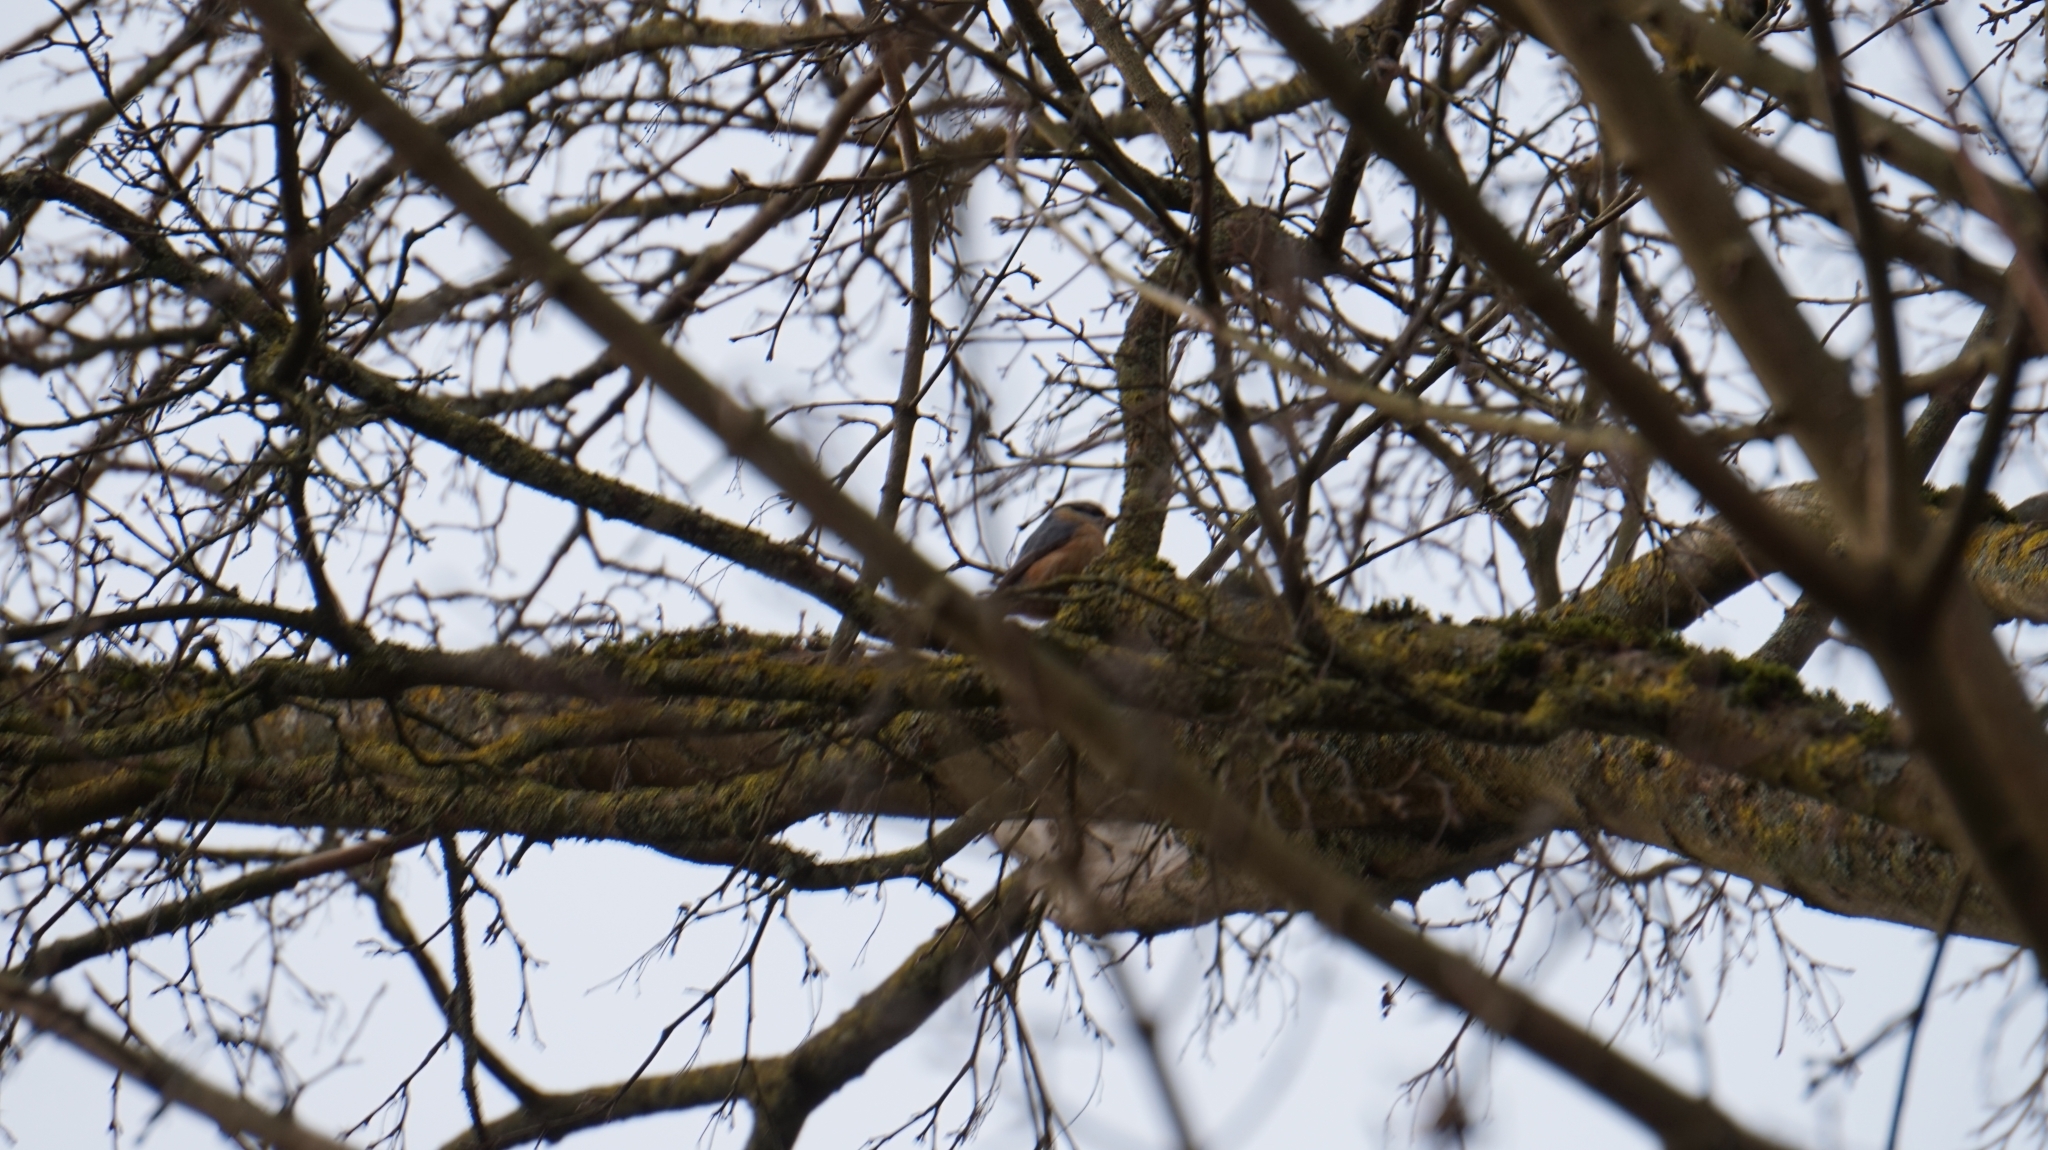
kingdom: Animalia
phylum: Chordata
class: Aves
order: Passeriformes
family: Sittidae
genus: Sitta
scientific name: Sitta europaea
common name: Eurasian nuthatch
